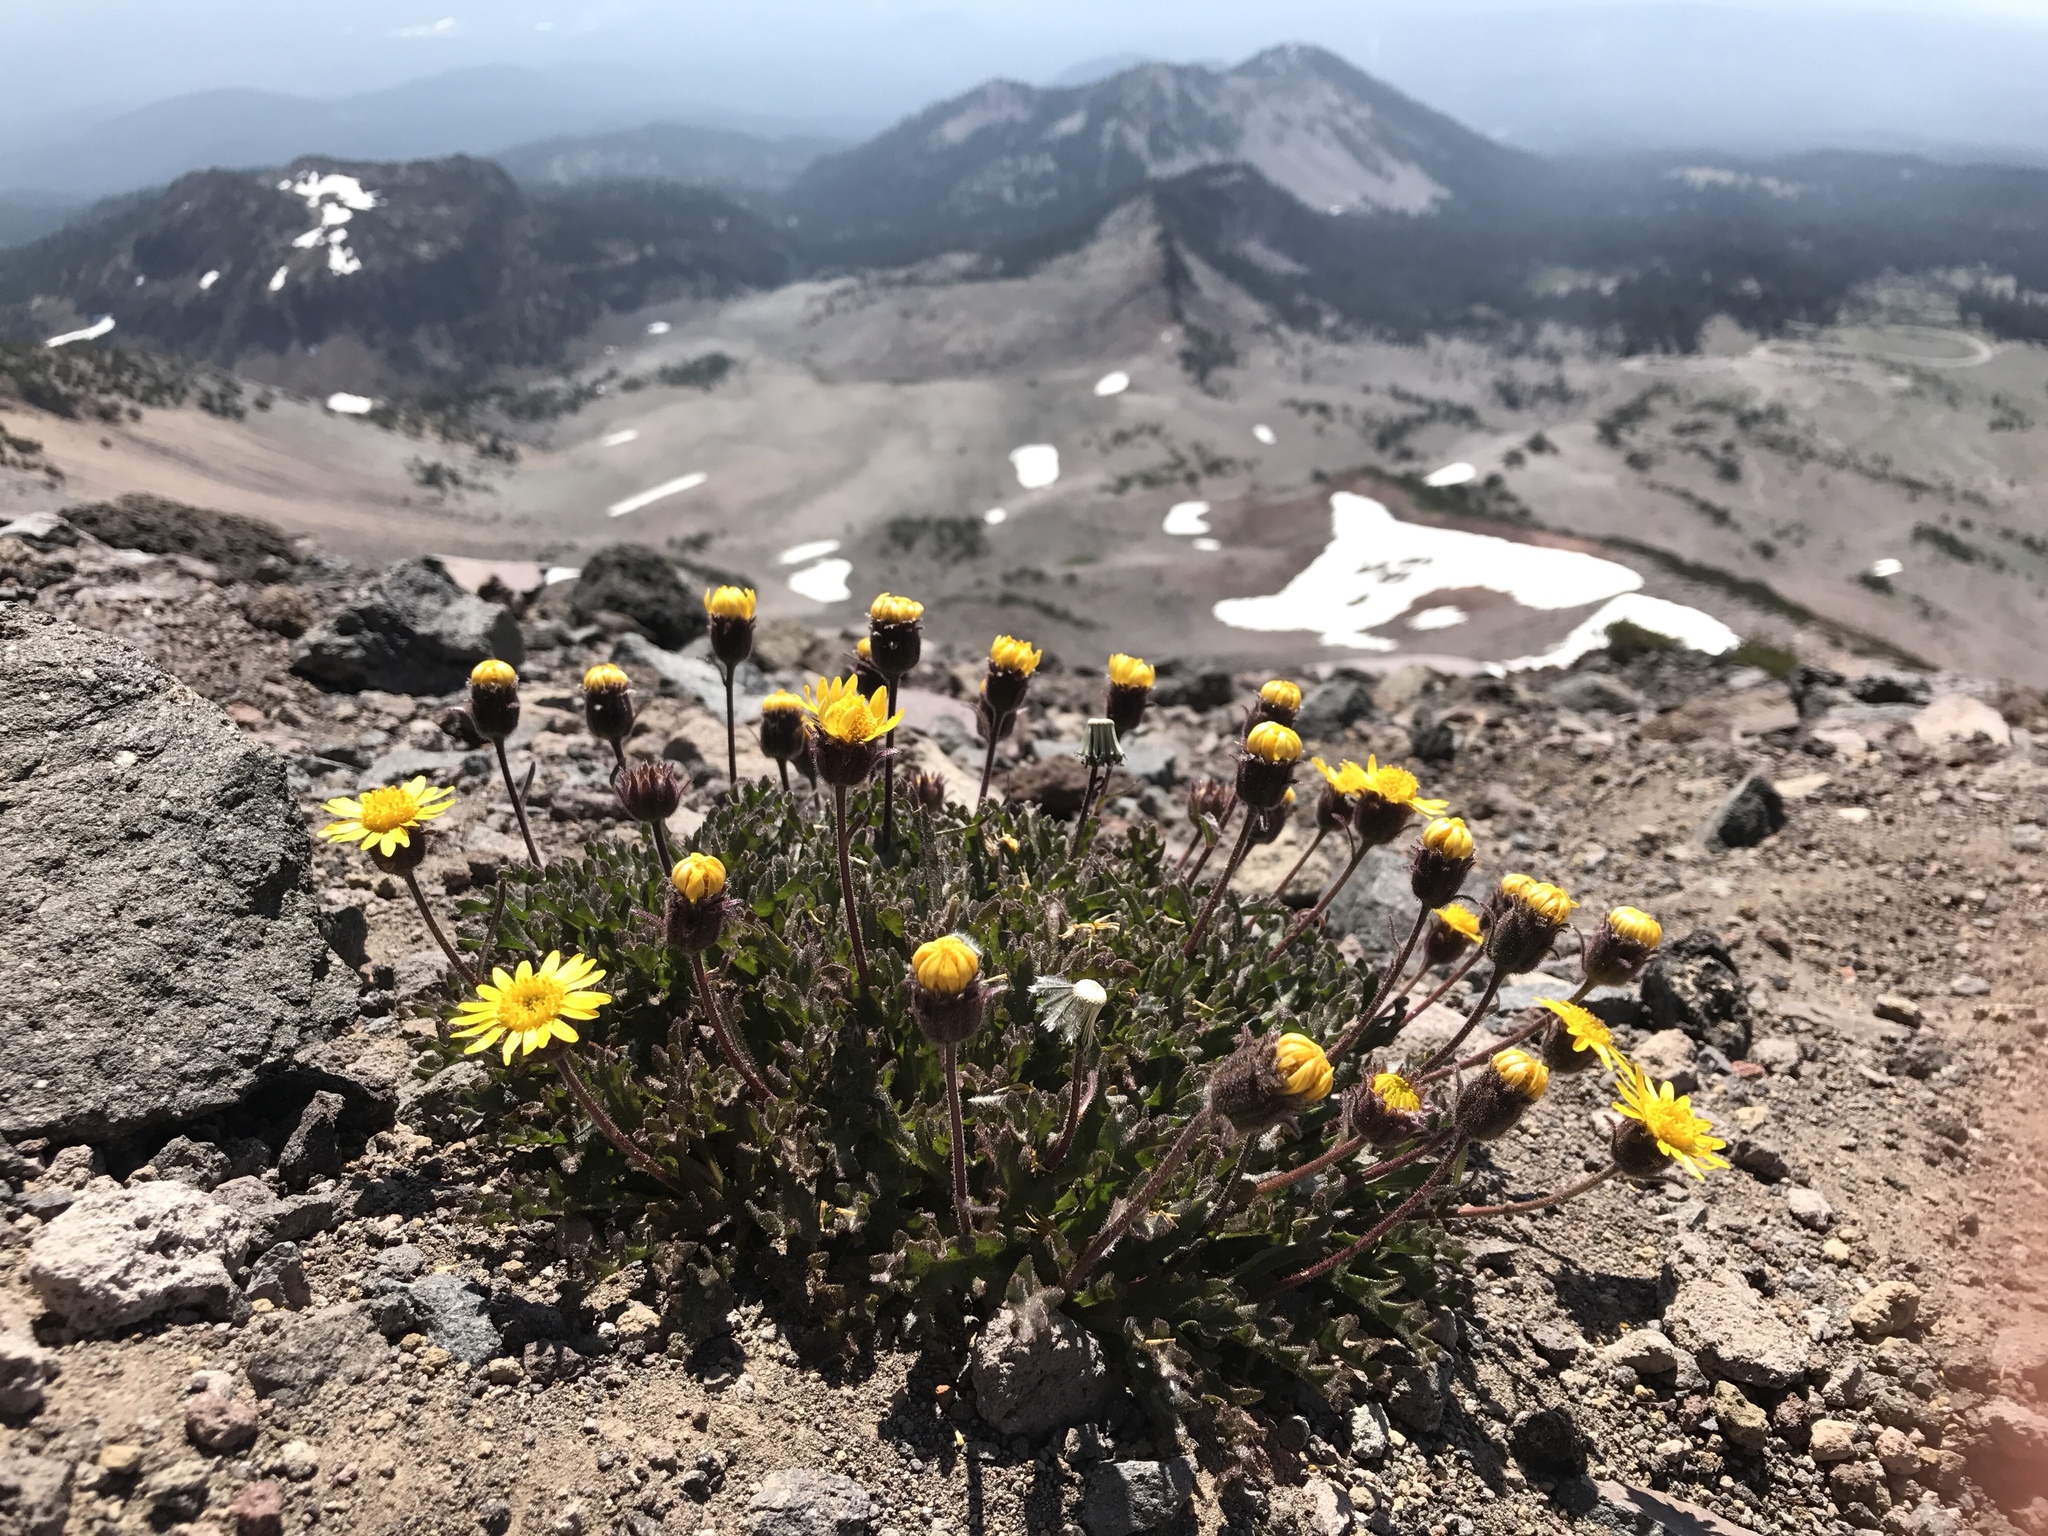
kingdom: Plantae
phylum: Tracheophyta
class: Magnoliopsida
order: Asterales
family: Asteraceae
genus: Hulsea
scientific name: Hulsea nana
